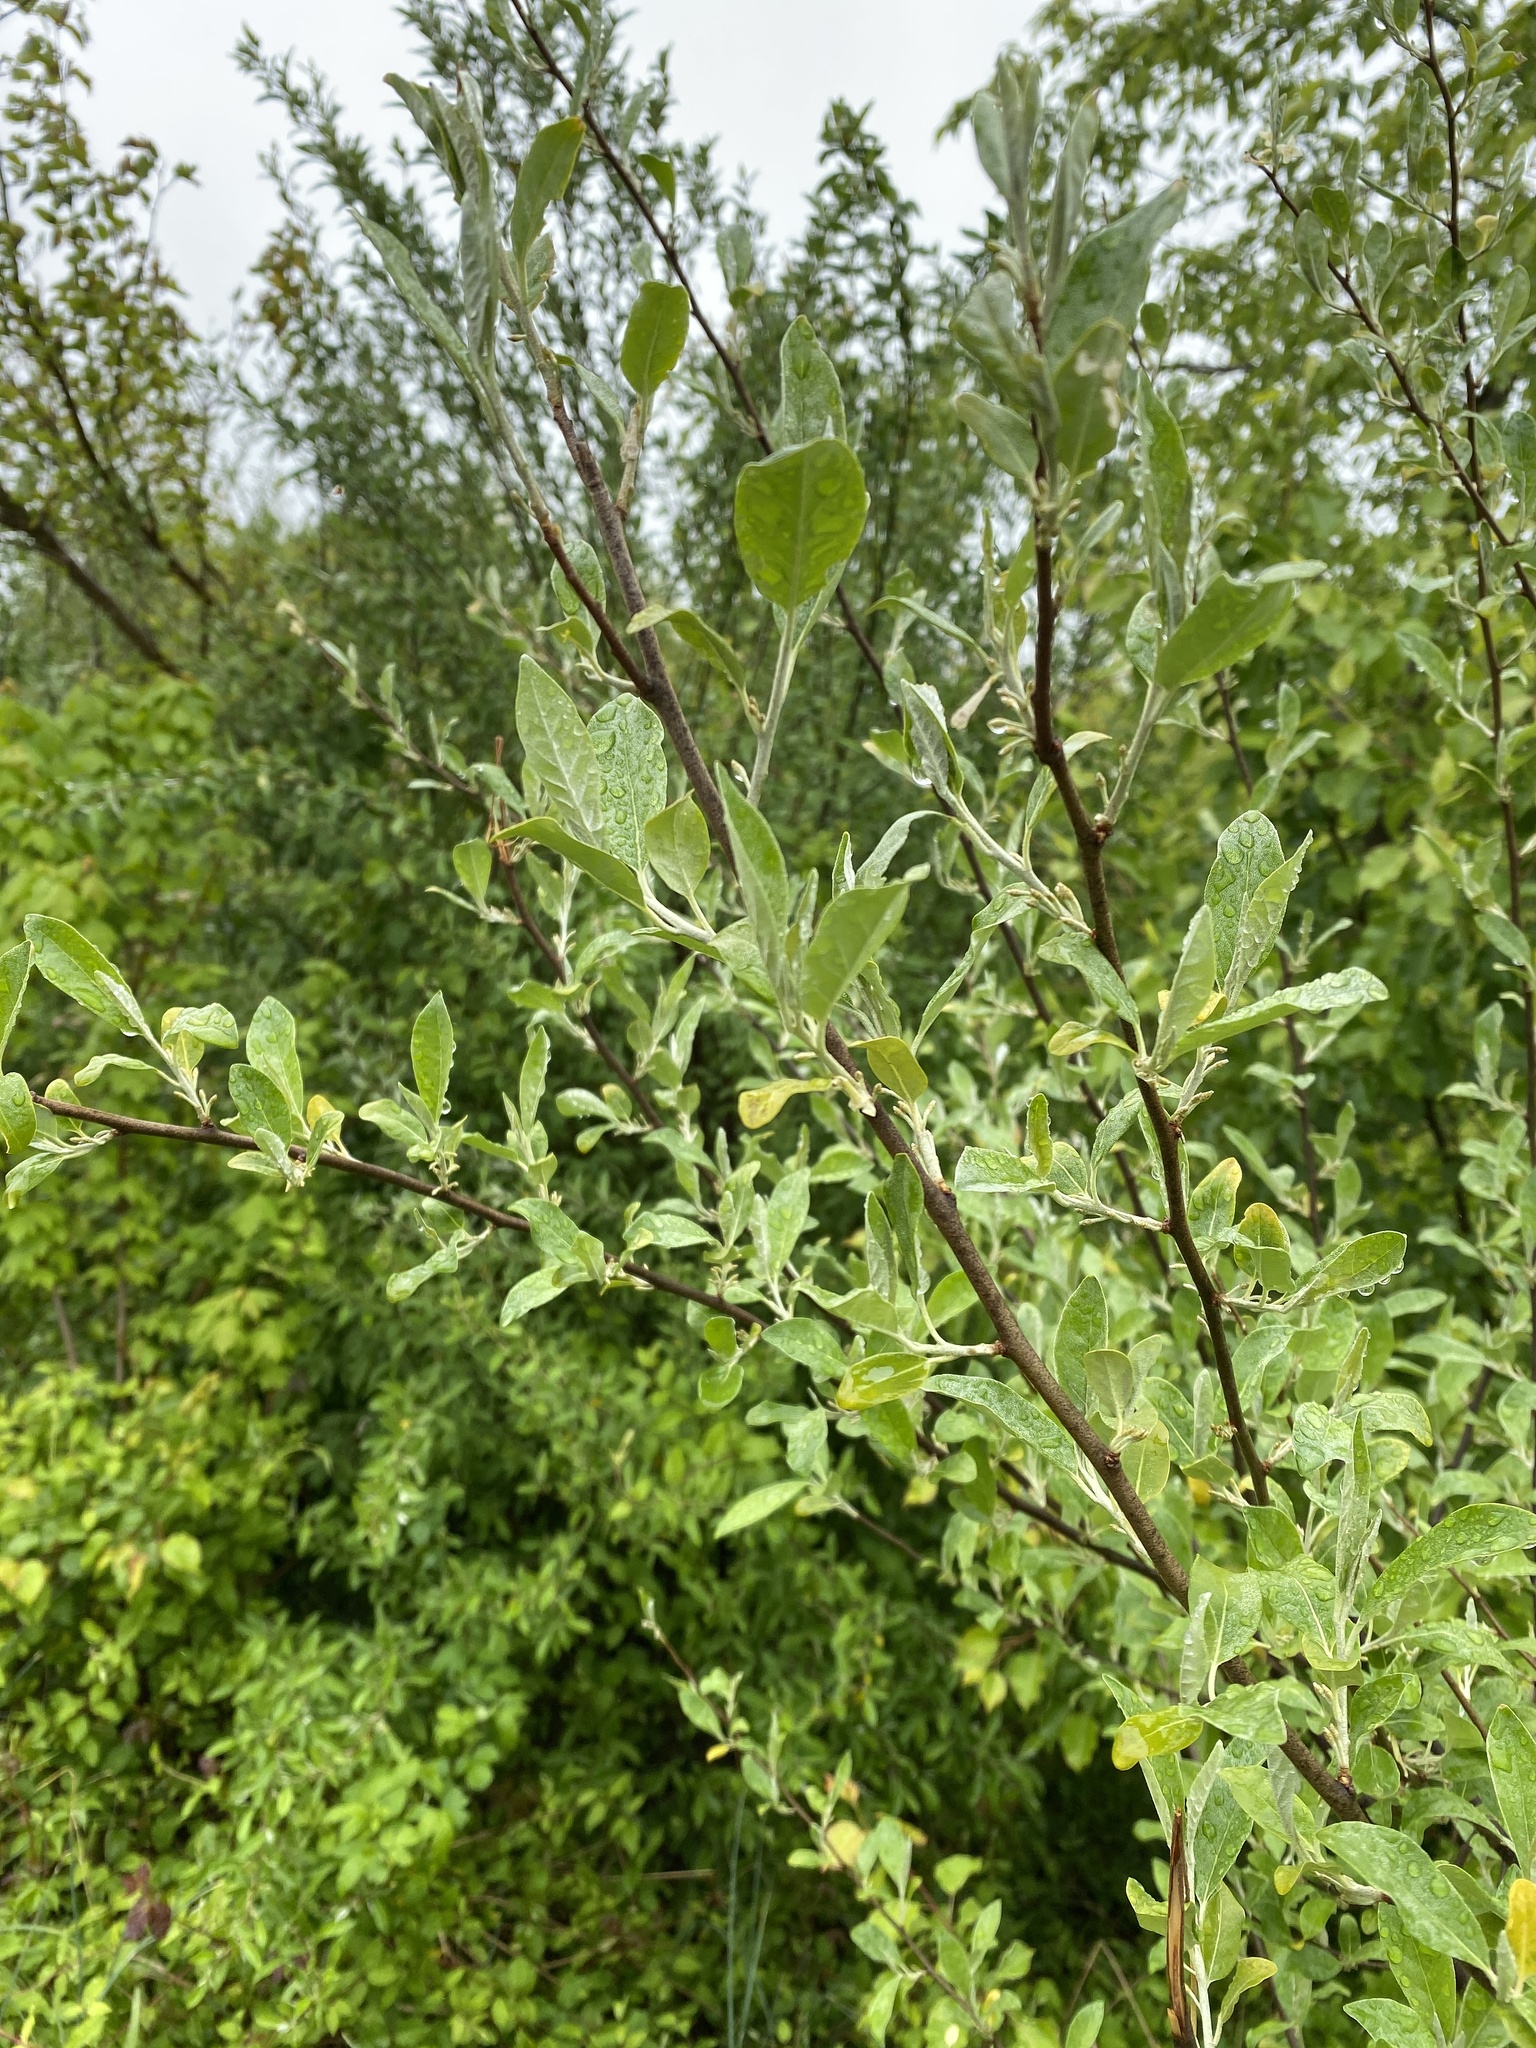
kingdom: Plantae
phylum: Tracheophyta
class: Magnoliopsida
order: Rosales
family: Elaeagnaceae
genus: Elaeagnus
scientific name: Elaeagnus umbellata
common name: Autumn olive
